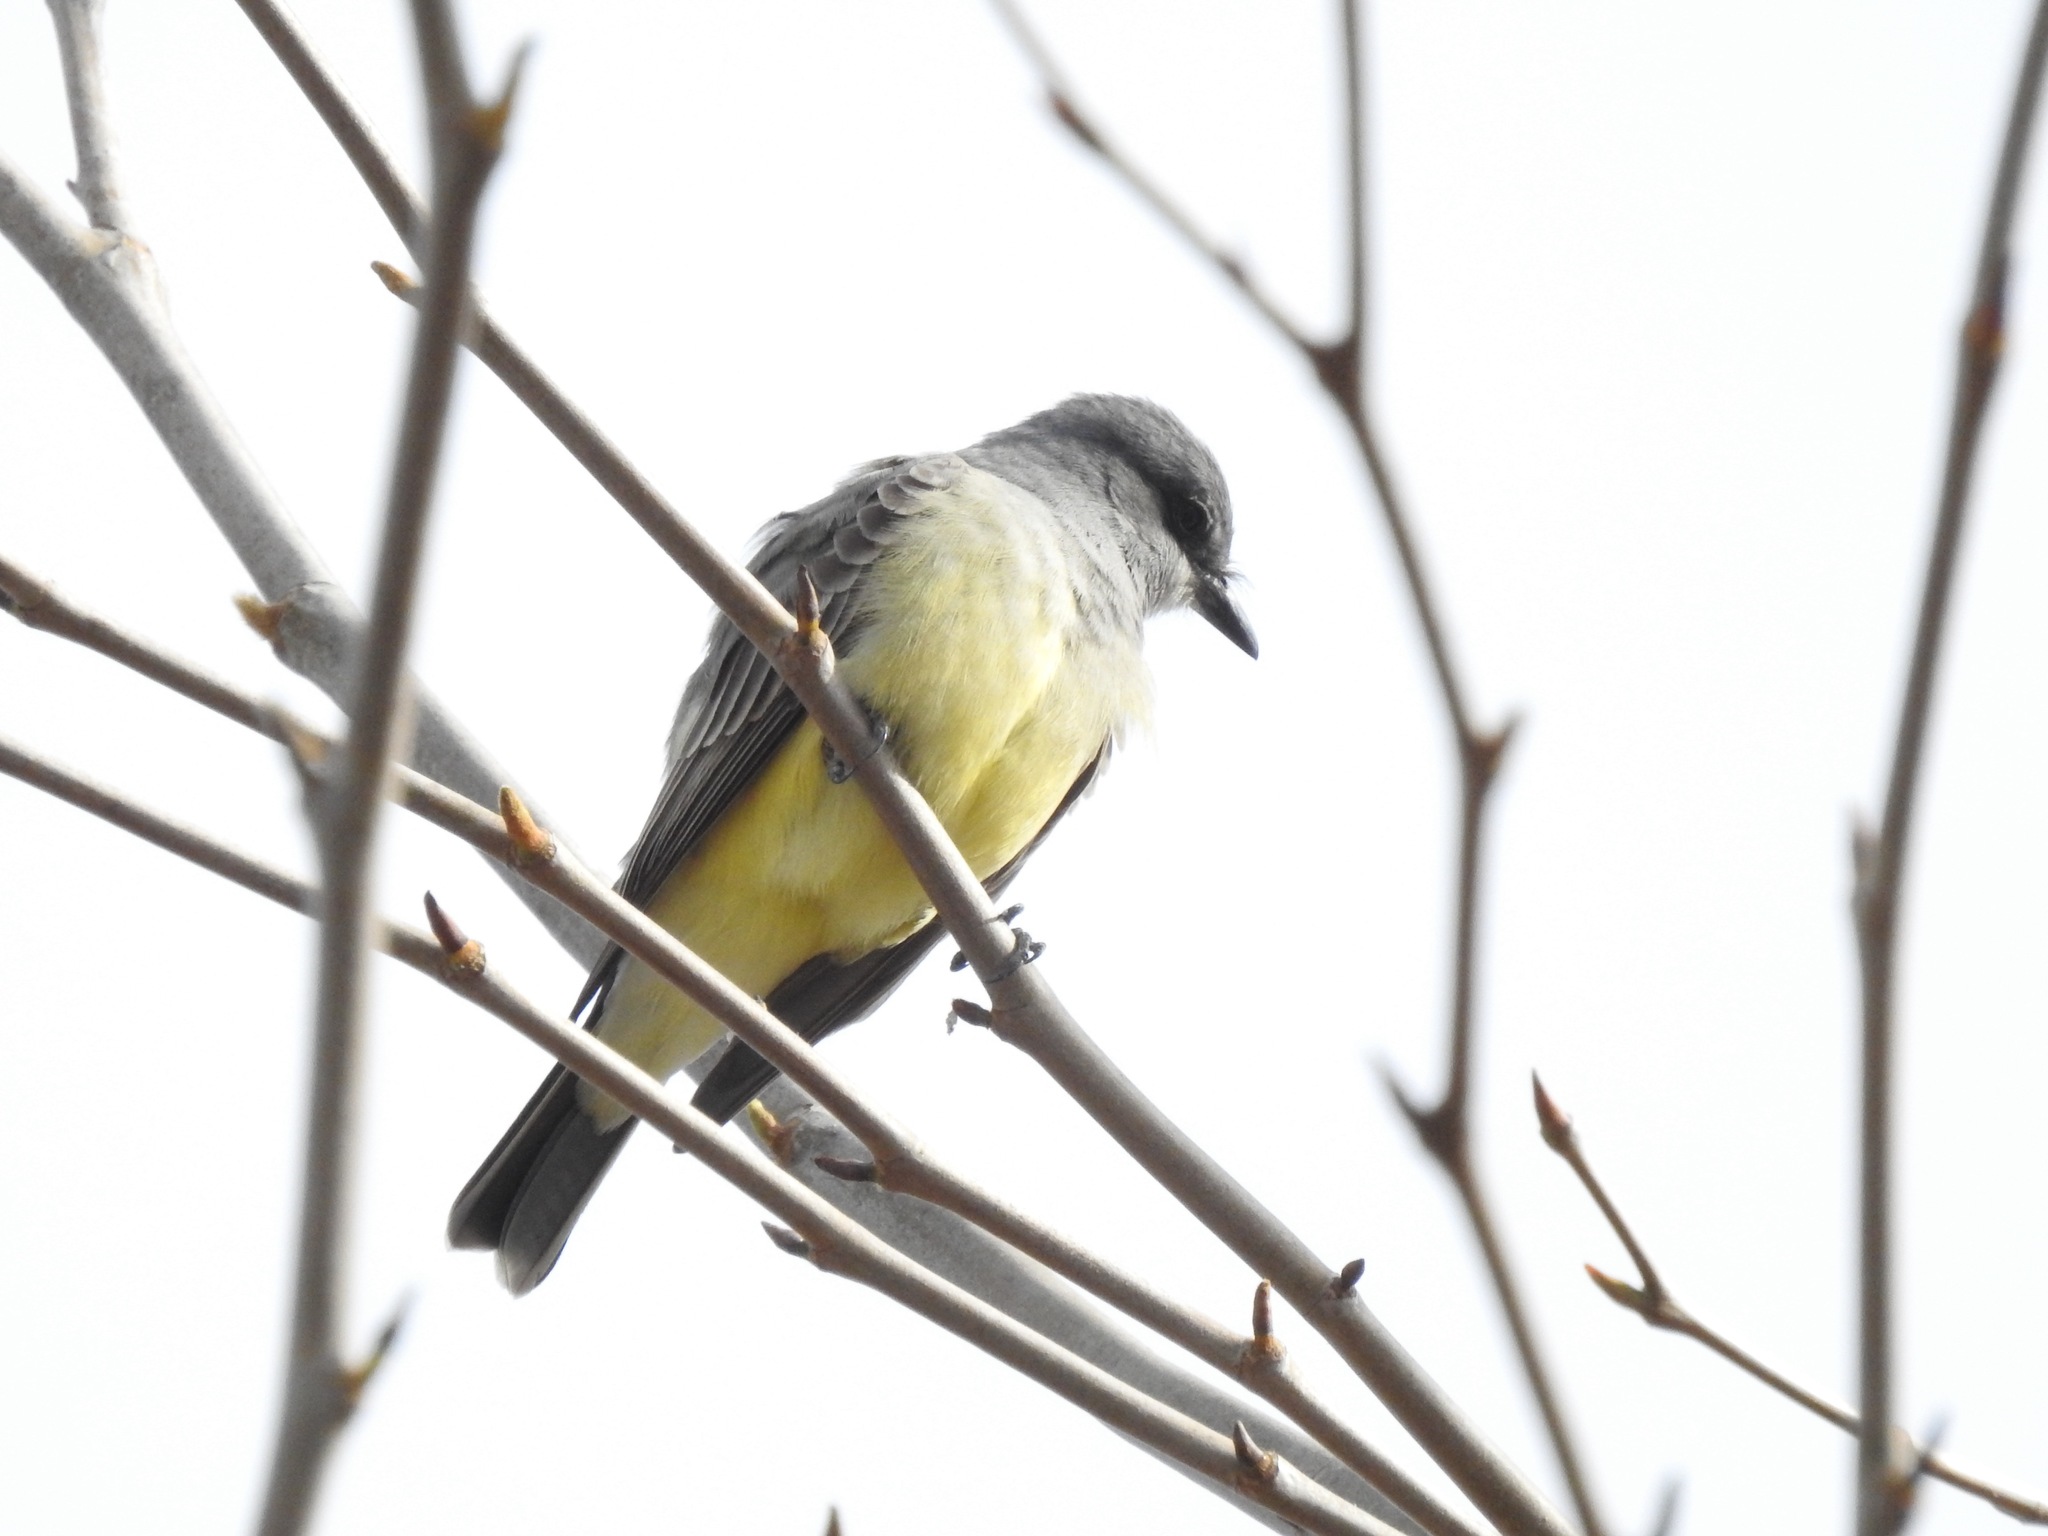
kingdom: Animalia
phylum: Chordata
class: Aves
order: Passeriformes
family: Tyrannidae
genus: Tyrannus
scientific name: Tyrannus verticalis
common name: Western kingbird
